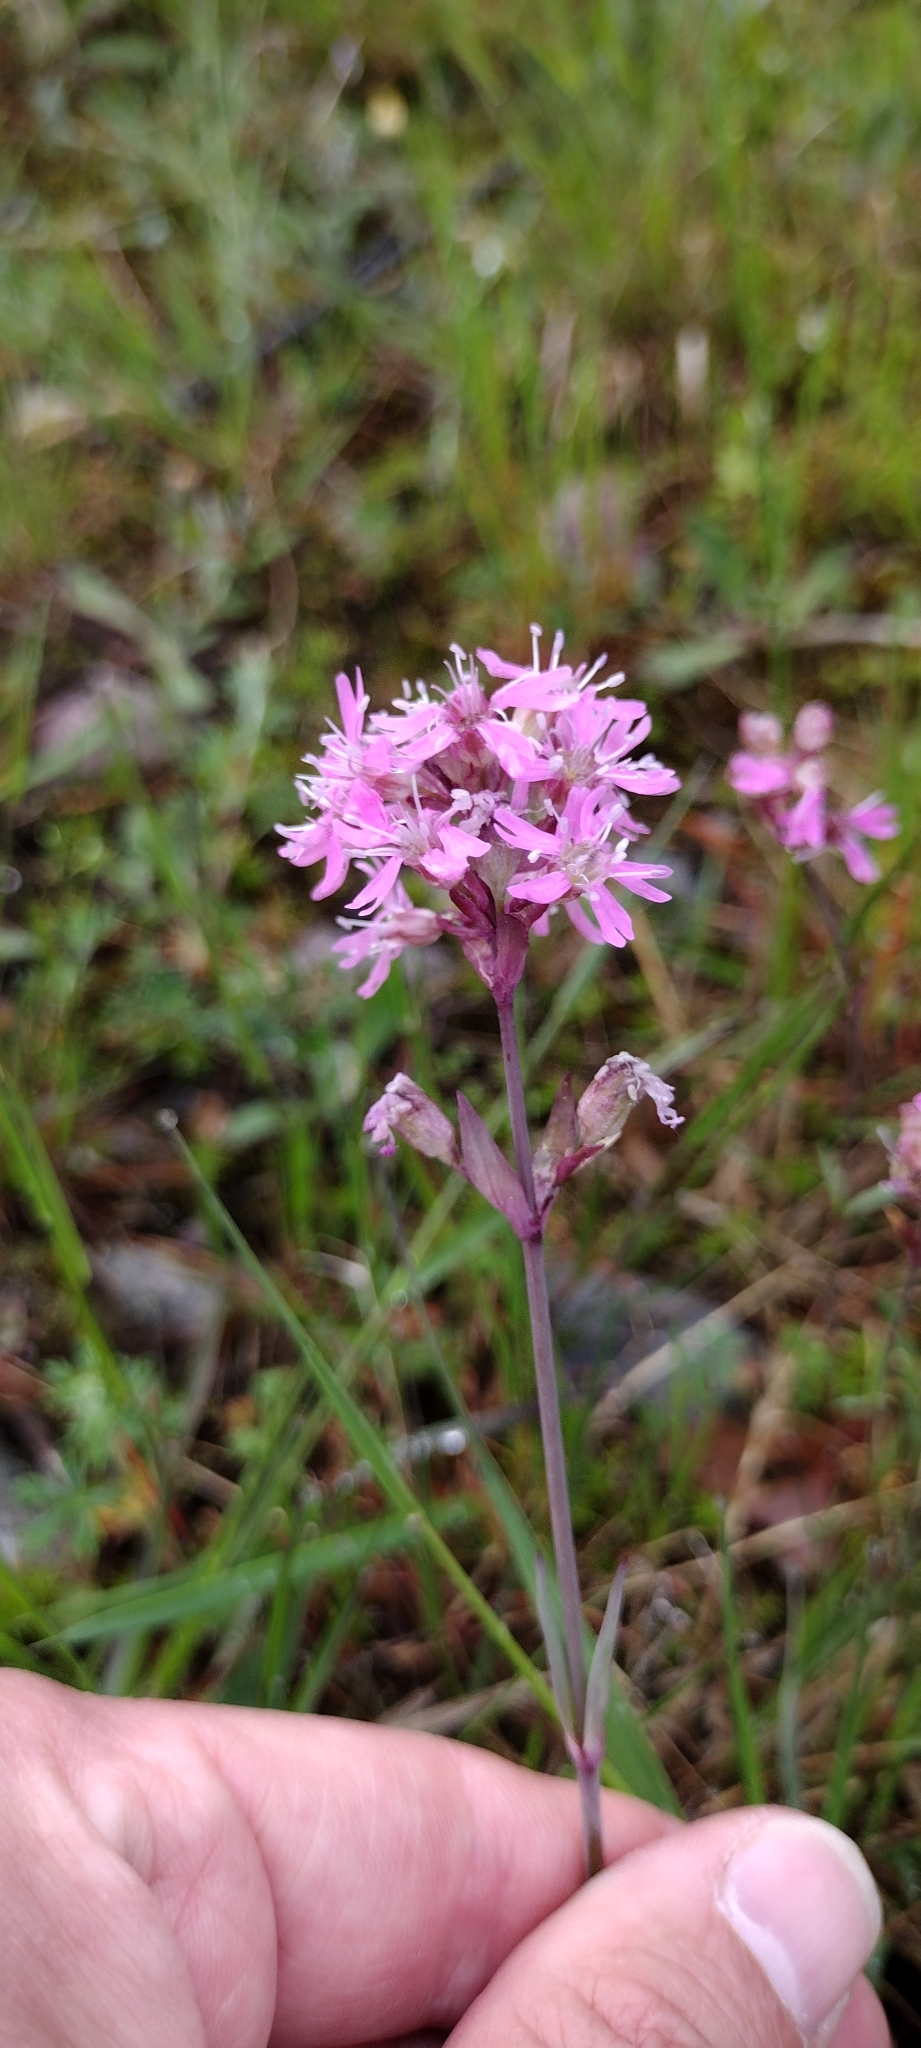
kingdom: Plantae
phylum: Tracheophyta
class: Magnoliopsida
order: Caryophyllales
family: Caryophyllaceae
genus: Viscaria
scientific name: Viscaria alpina
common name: Alpine campion
